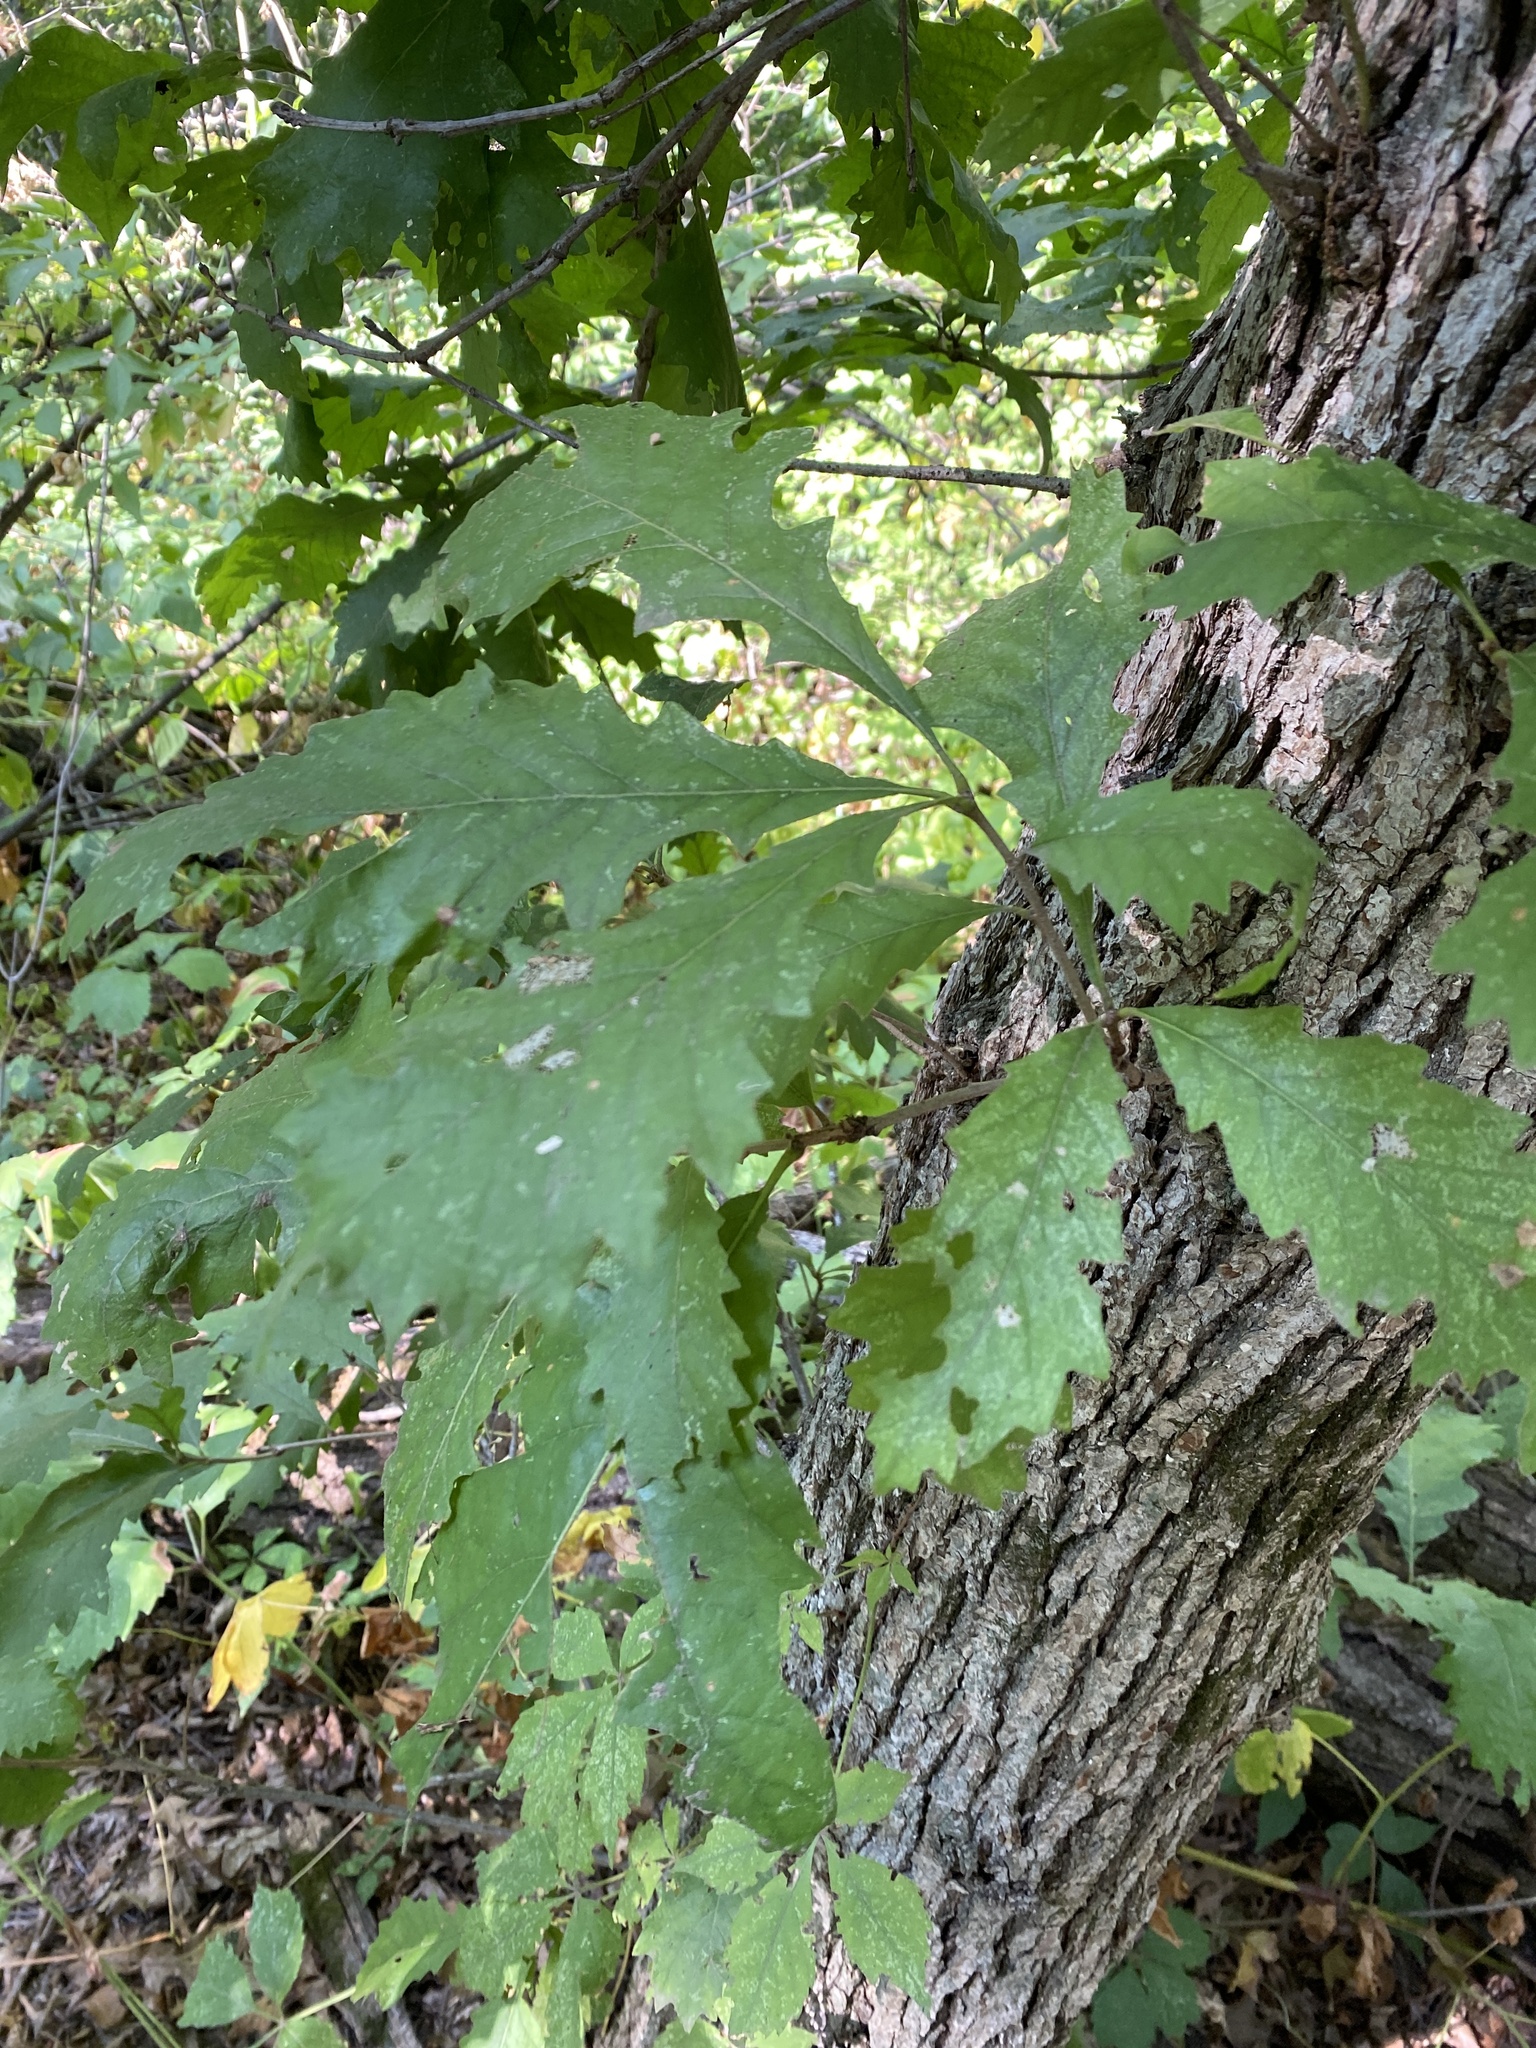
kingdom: Plantae
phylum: Tracheophyta
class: Magnoliopsida
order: Fagales
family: Fagaceae
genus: Quercus
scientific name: Quercus muehlenbergii
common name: Chinkapin oak
